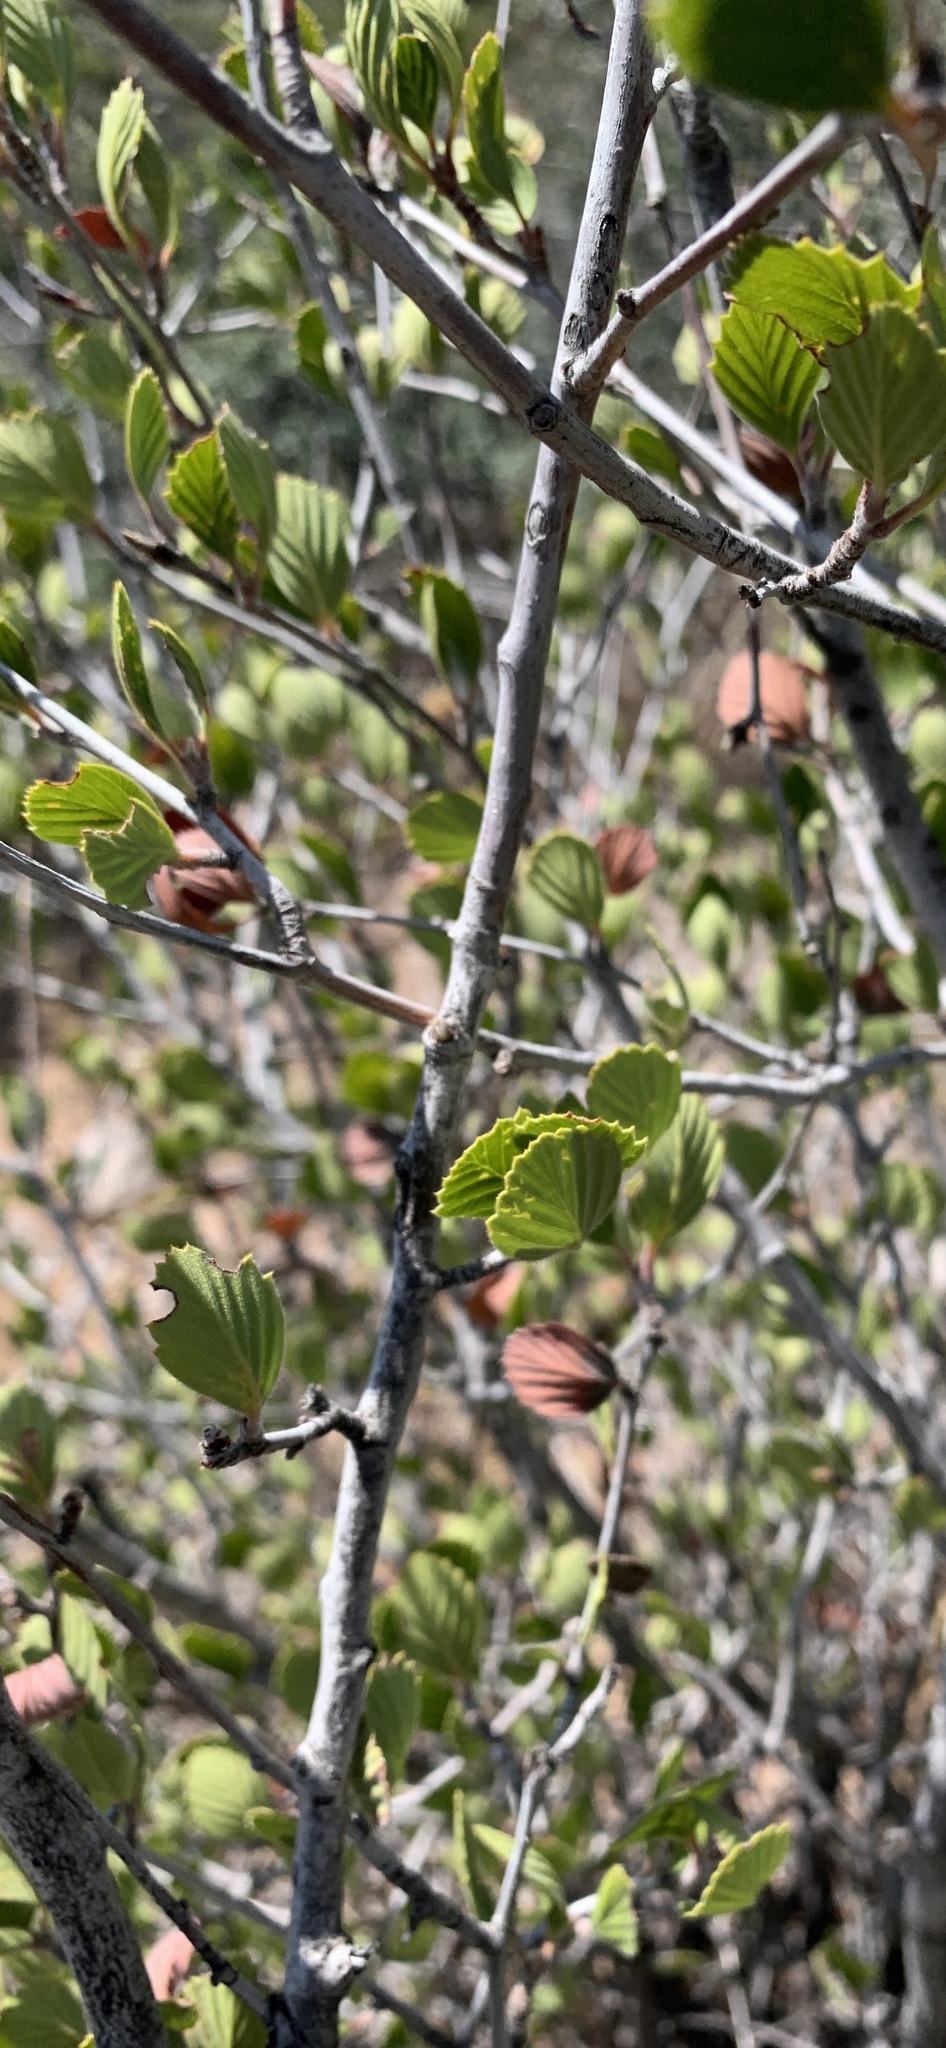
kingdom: Plantae
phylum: Tracheophyta
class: Magnoliopsida
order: Rosales
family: Rosaceae
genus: Cercocarpus
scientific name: Cercocarpus montanus
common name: Alder-leaf cercocarpus
